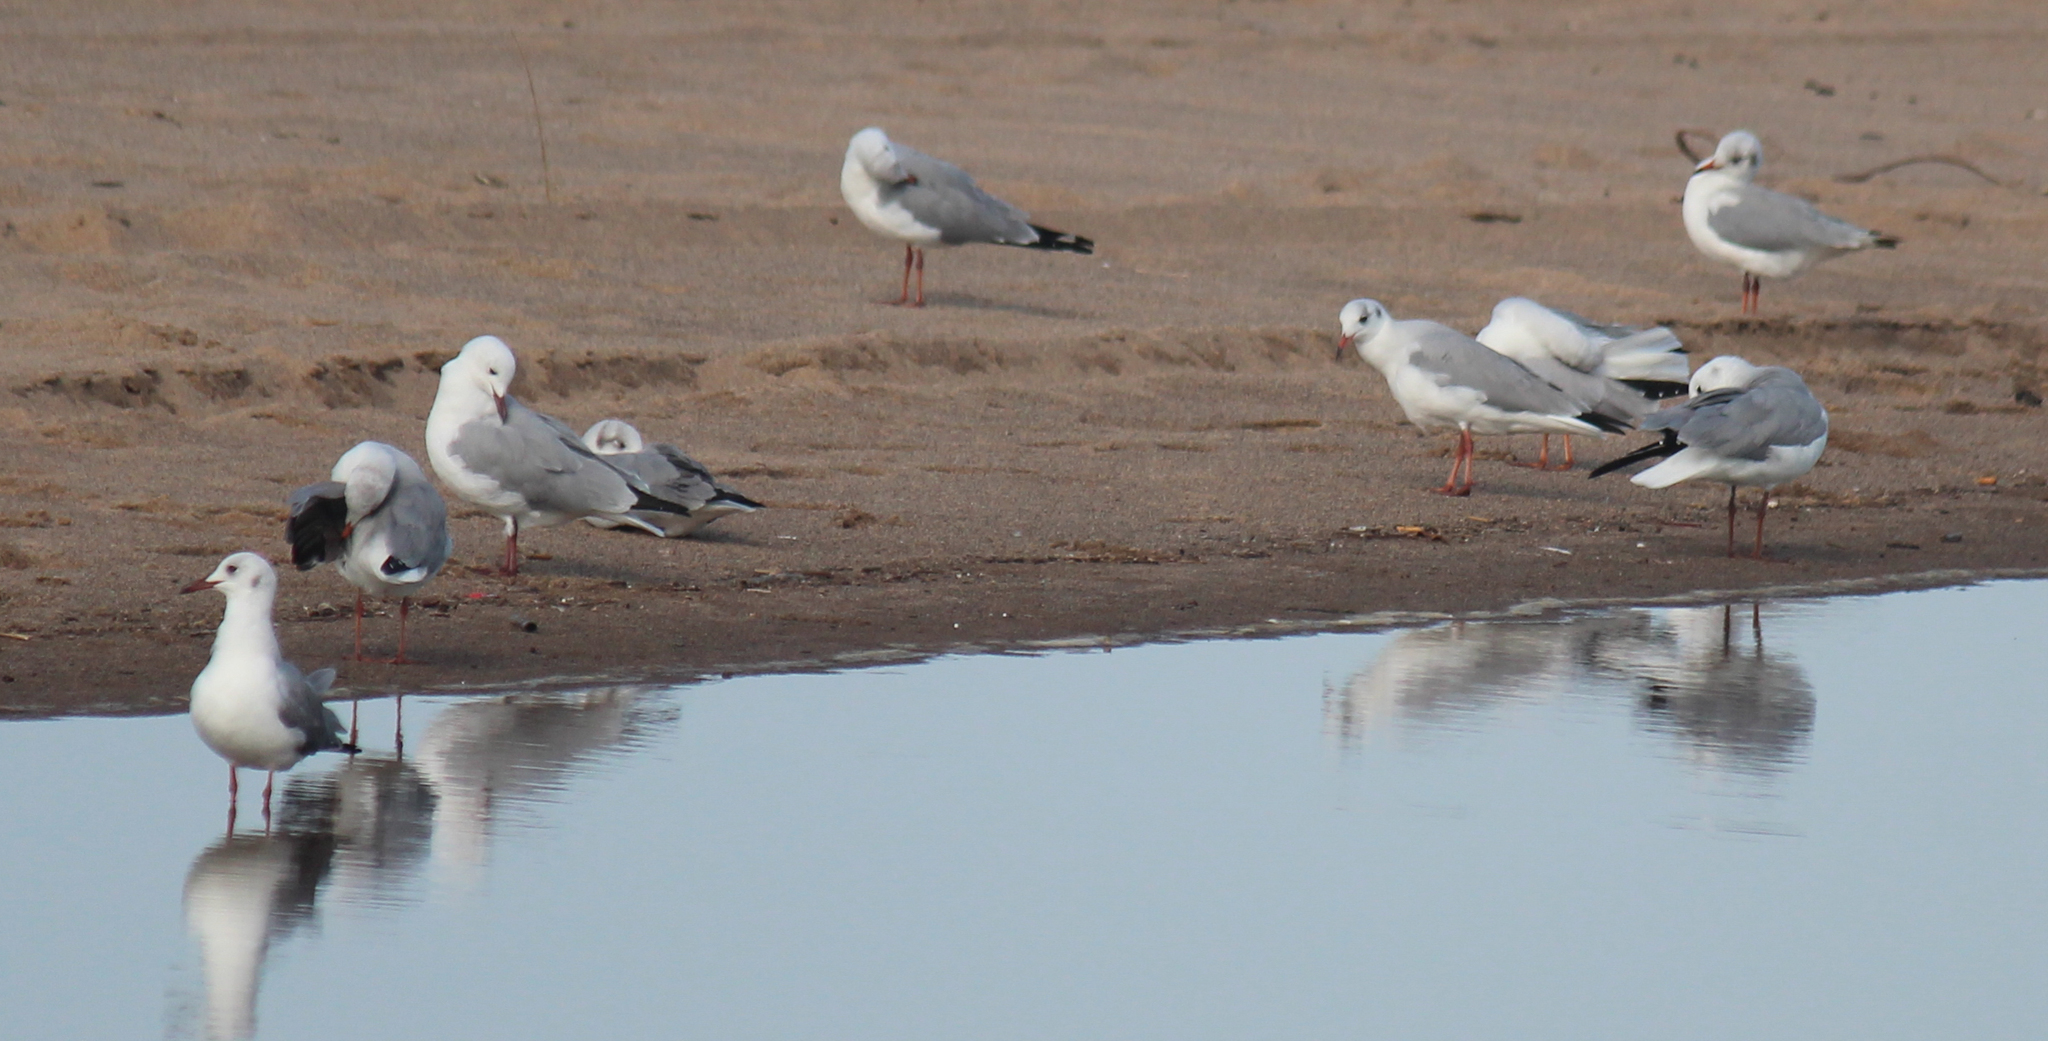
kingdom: Animalia
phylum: Chordata
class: Aves
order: Charadriiformes
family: Laridae
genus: Chroicocephalus
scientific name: Chroicocephalus cirrocephalus
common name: Grey-headed gull
